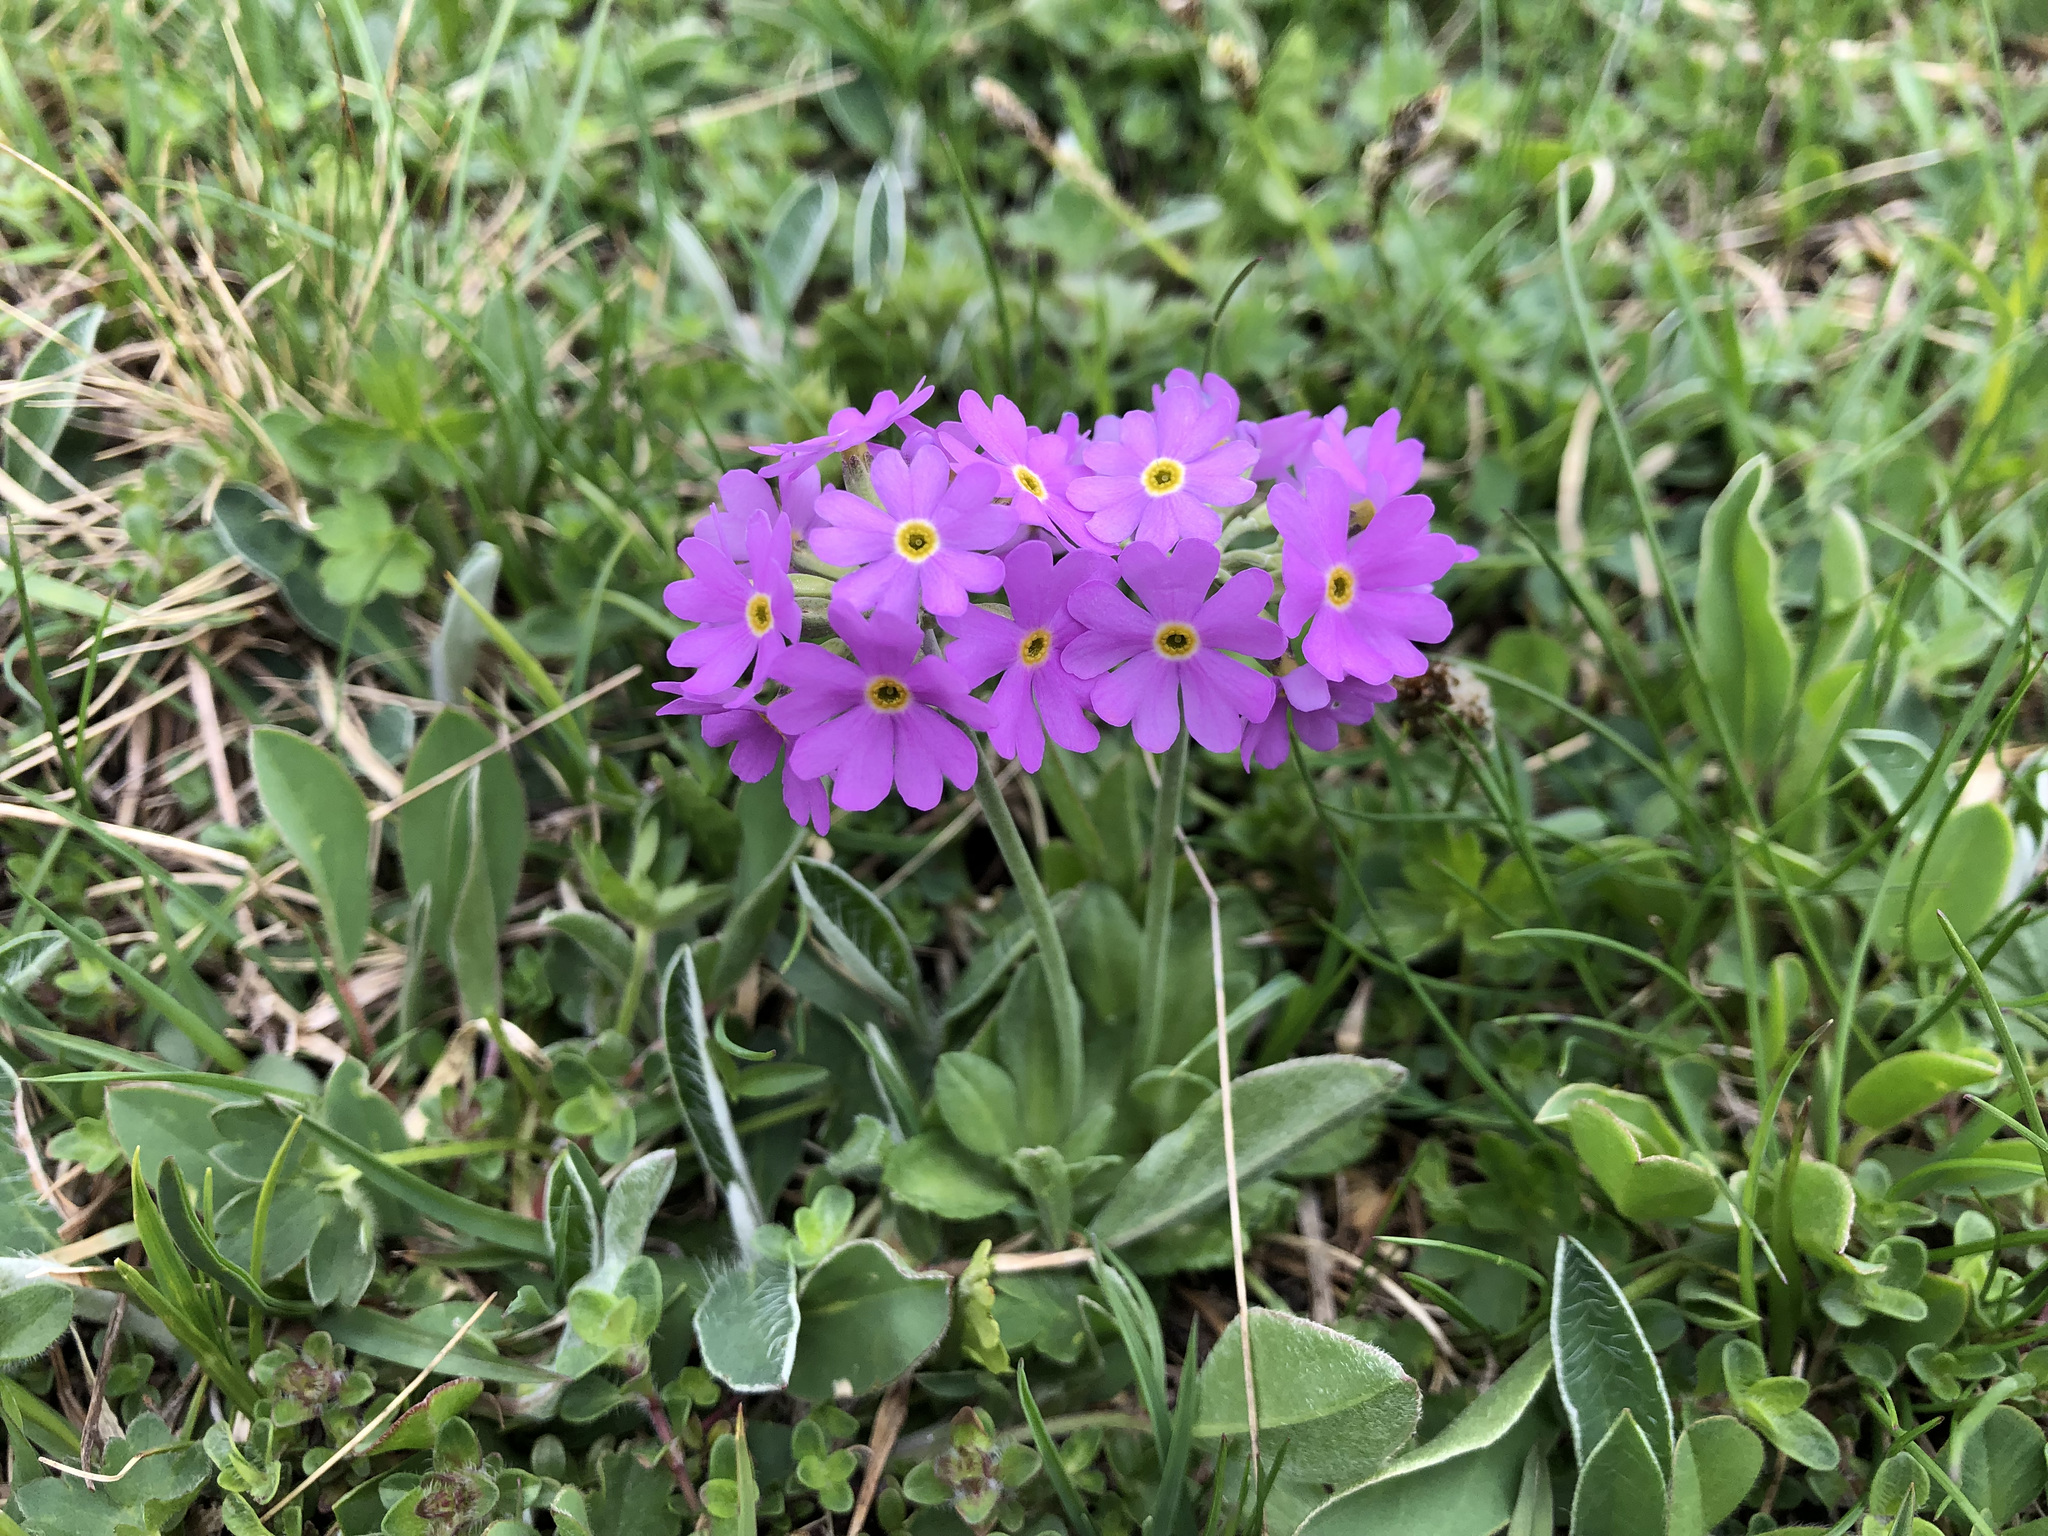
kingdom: Plantae
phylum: Tracheophyta
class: Magnoliopsida
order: Ericales
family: Primulaceae
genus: Primula
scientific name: Primula farinosa
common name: Bird's-eye primrose
